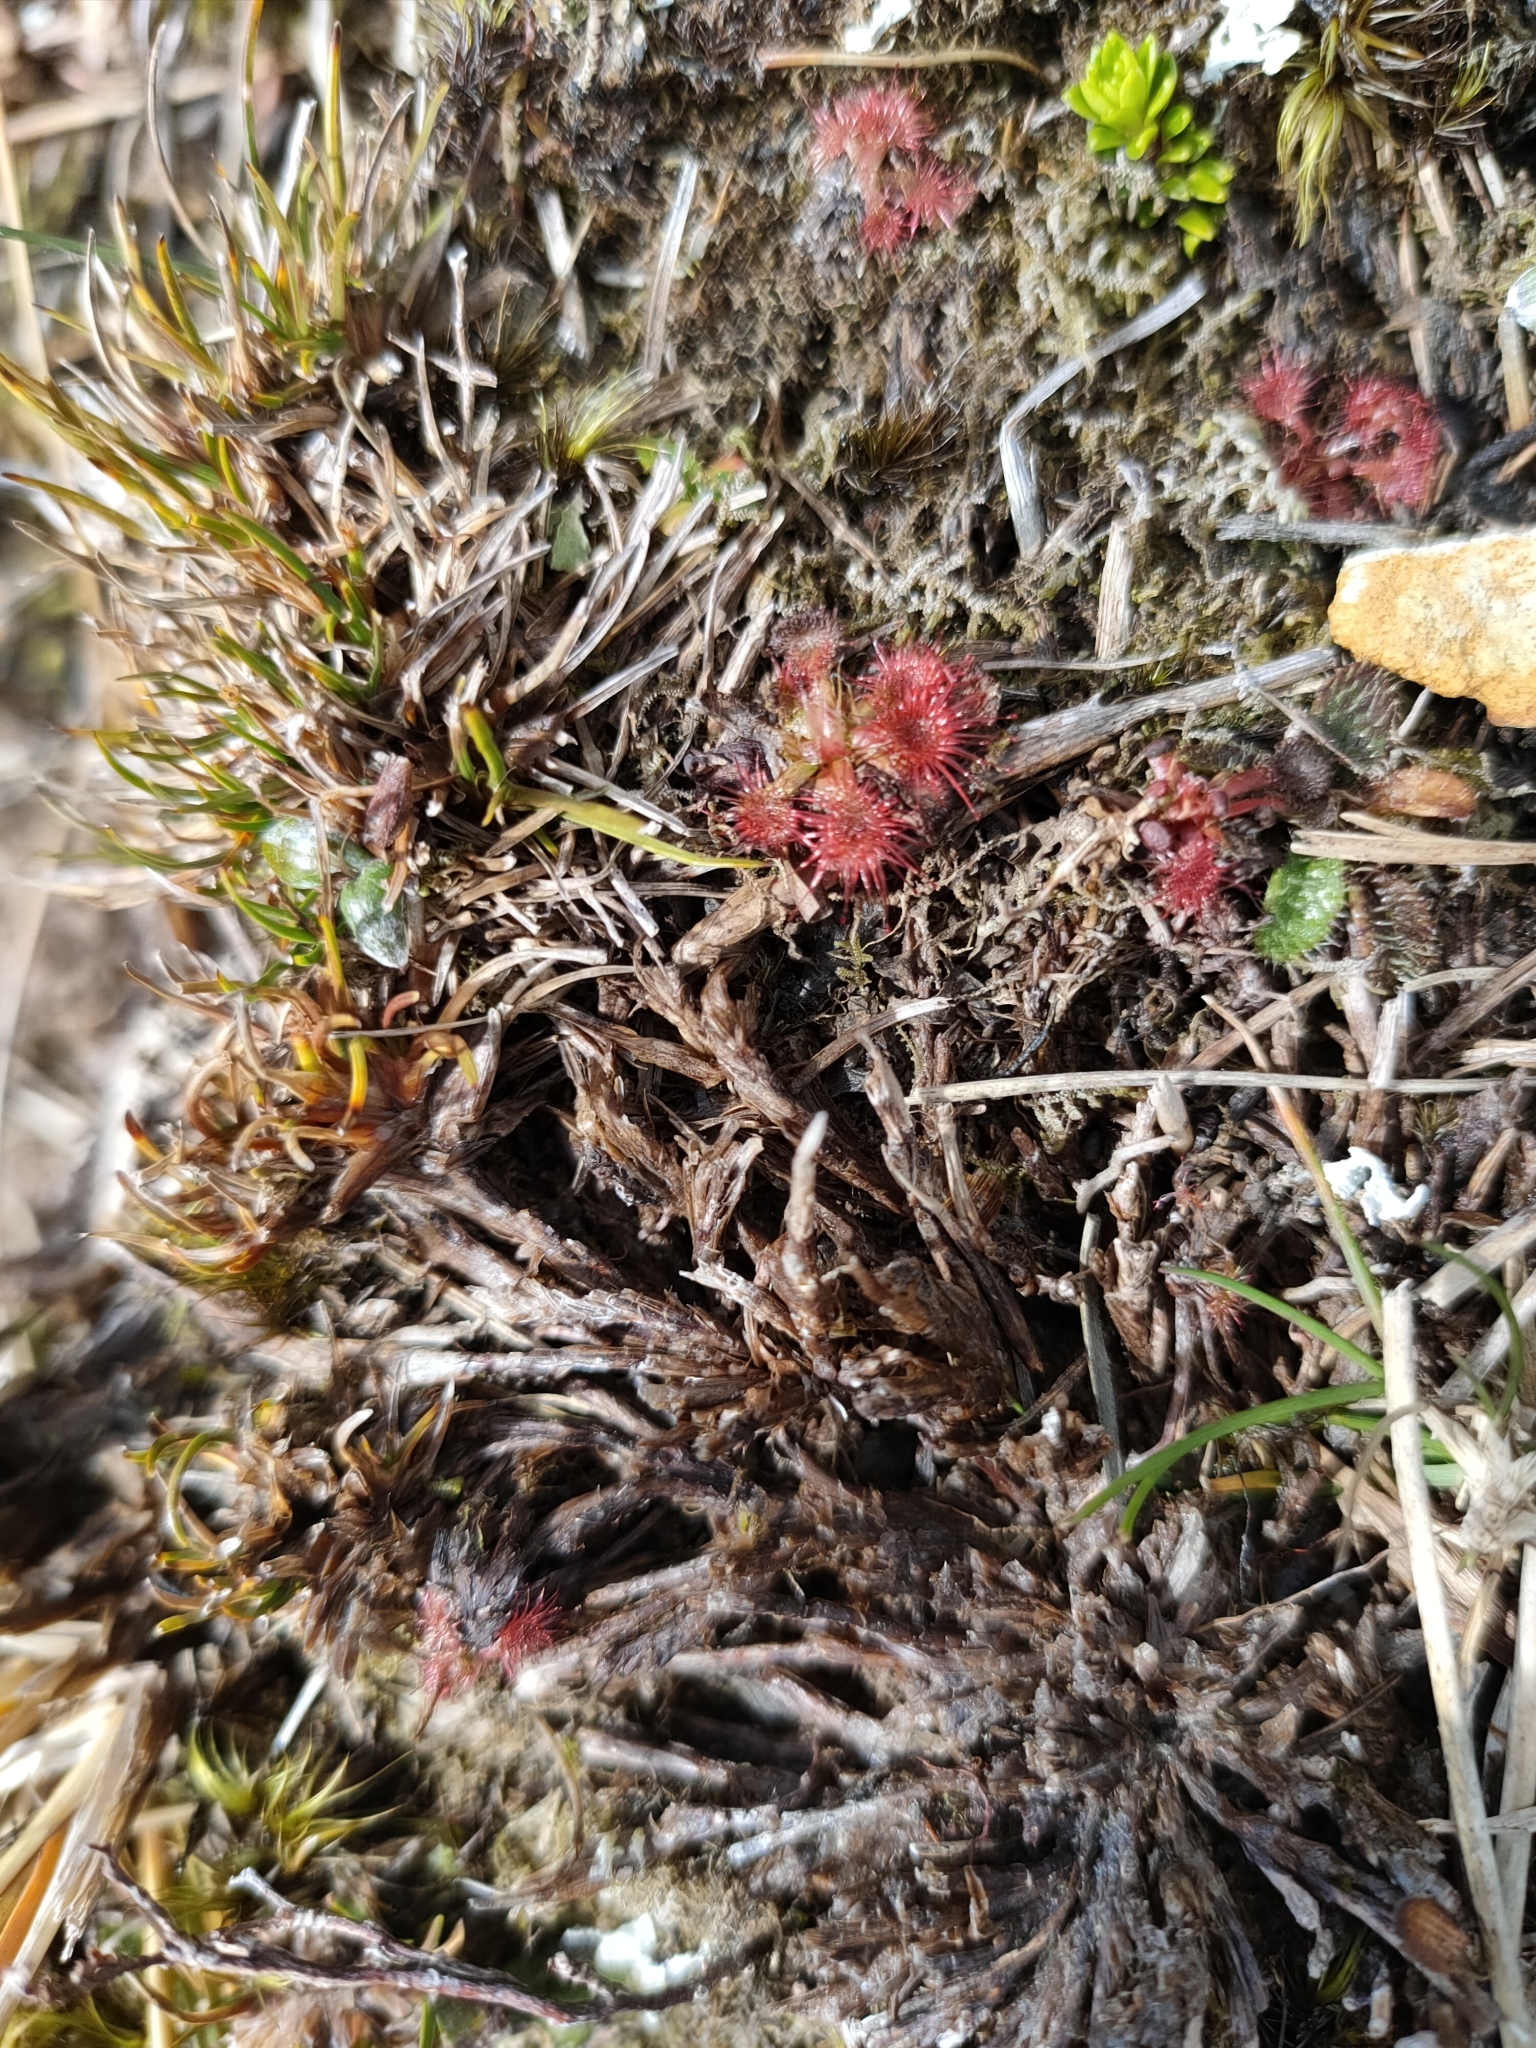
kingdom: Plantae
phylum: Tracheophyta
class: Magnoliopsida
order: Caryophyllales
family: Droseraceae
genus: Drosera
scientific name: Drosera spatulata
